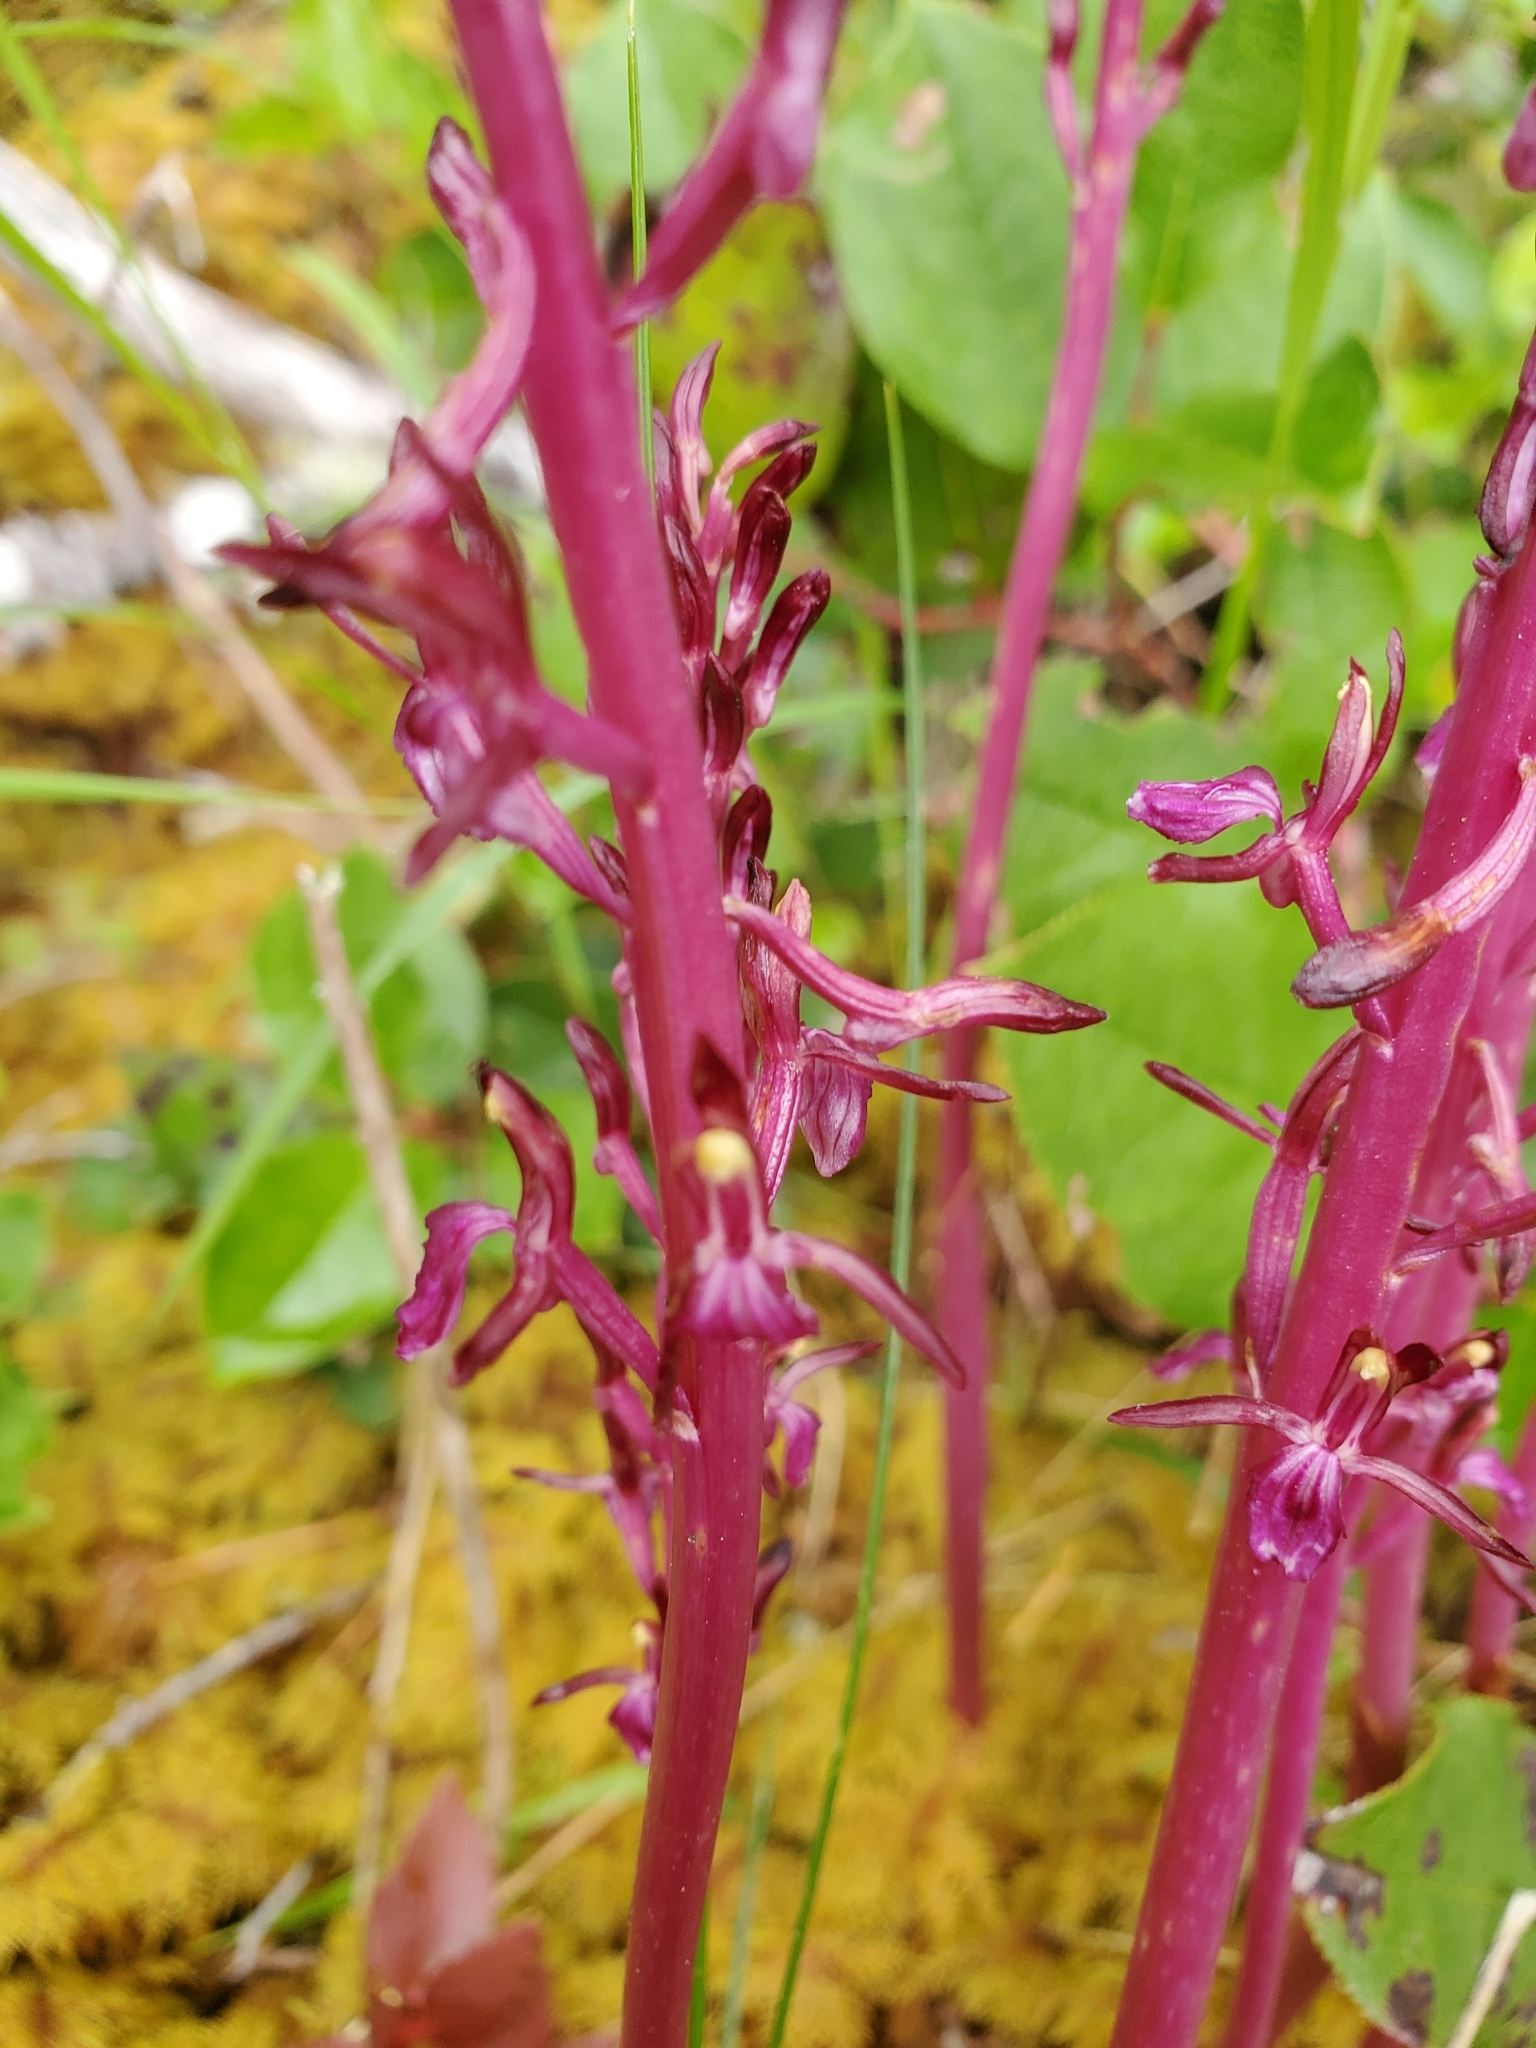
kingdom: Plantae
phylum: Tracheophyta
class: Liliopsida
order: Asparagales
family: Orchidaceae
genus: Corallorhiza
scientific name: Corallorhiza mertensiana
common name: Pacific coralroot
